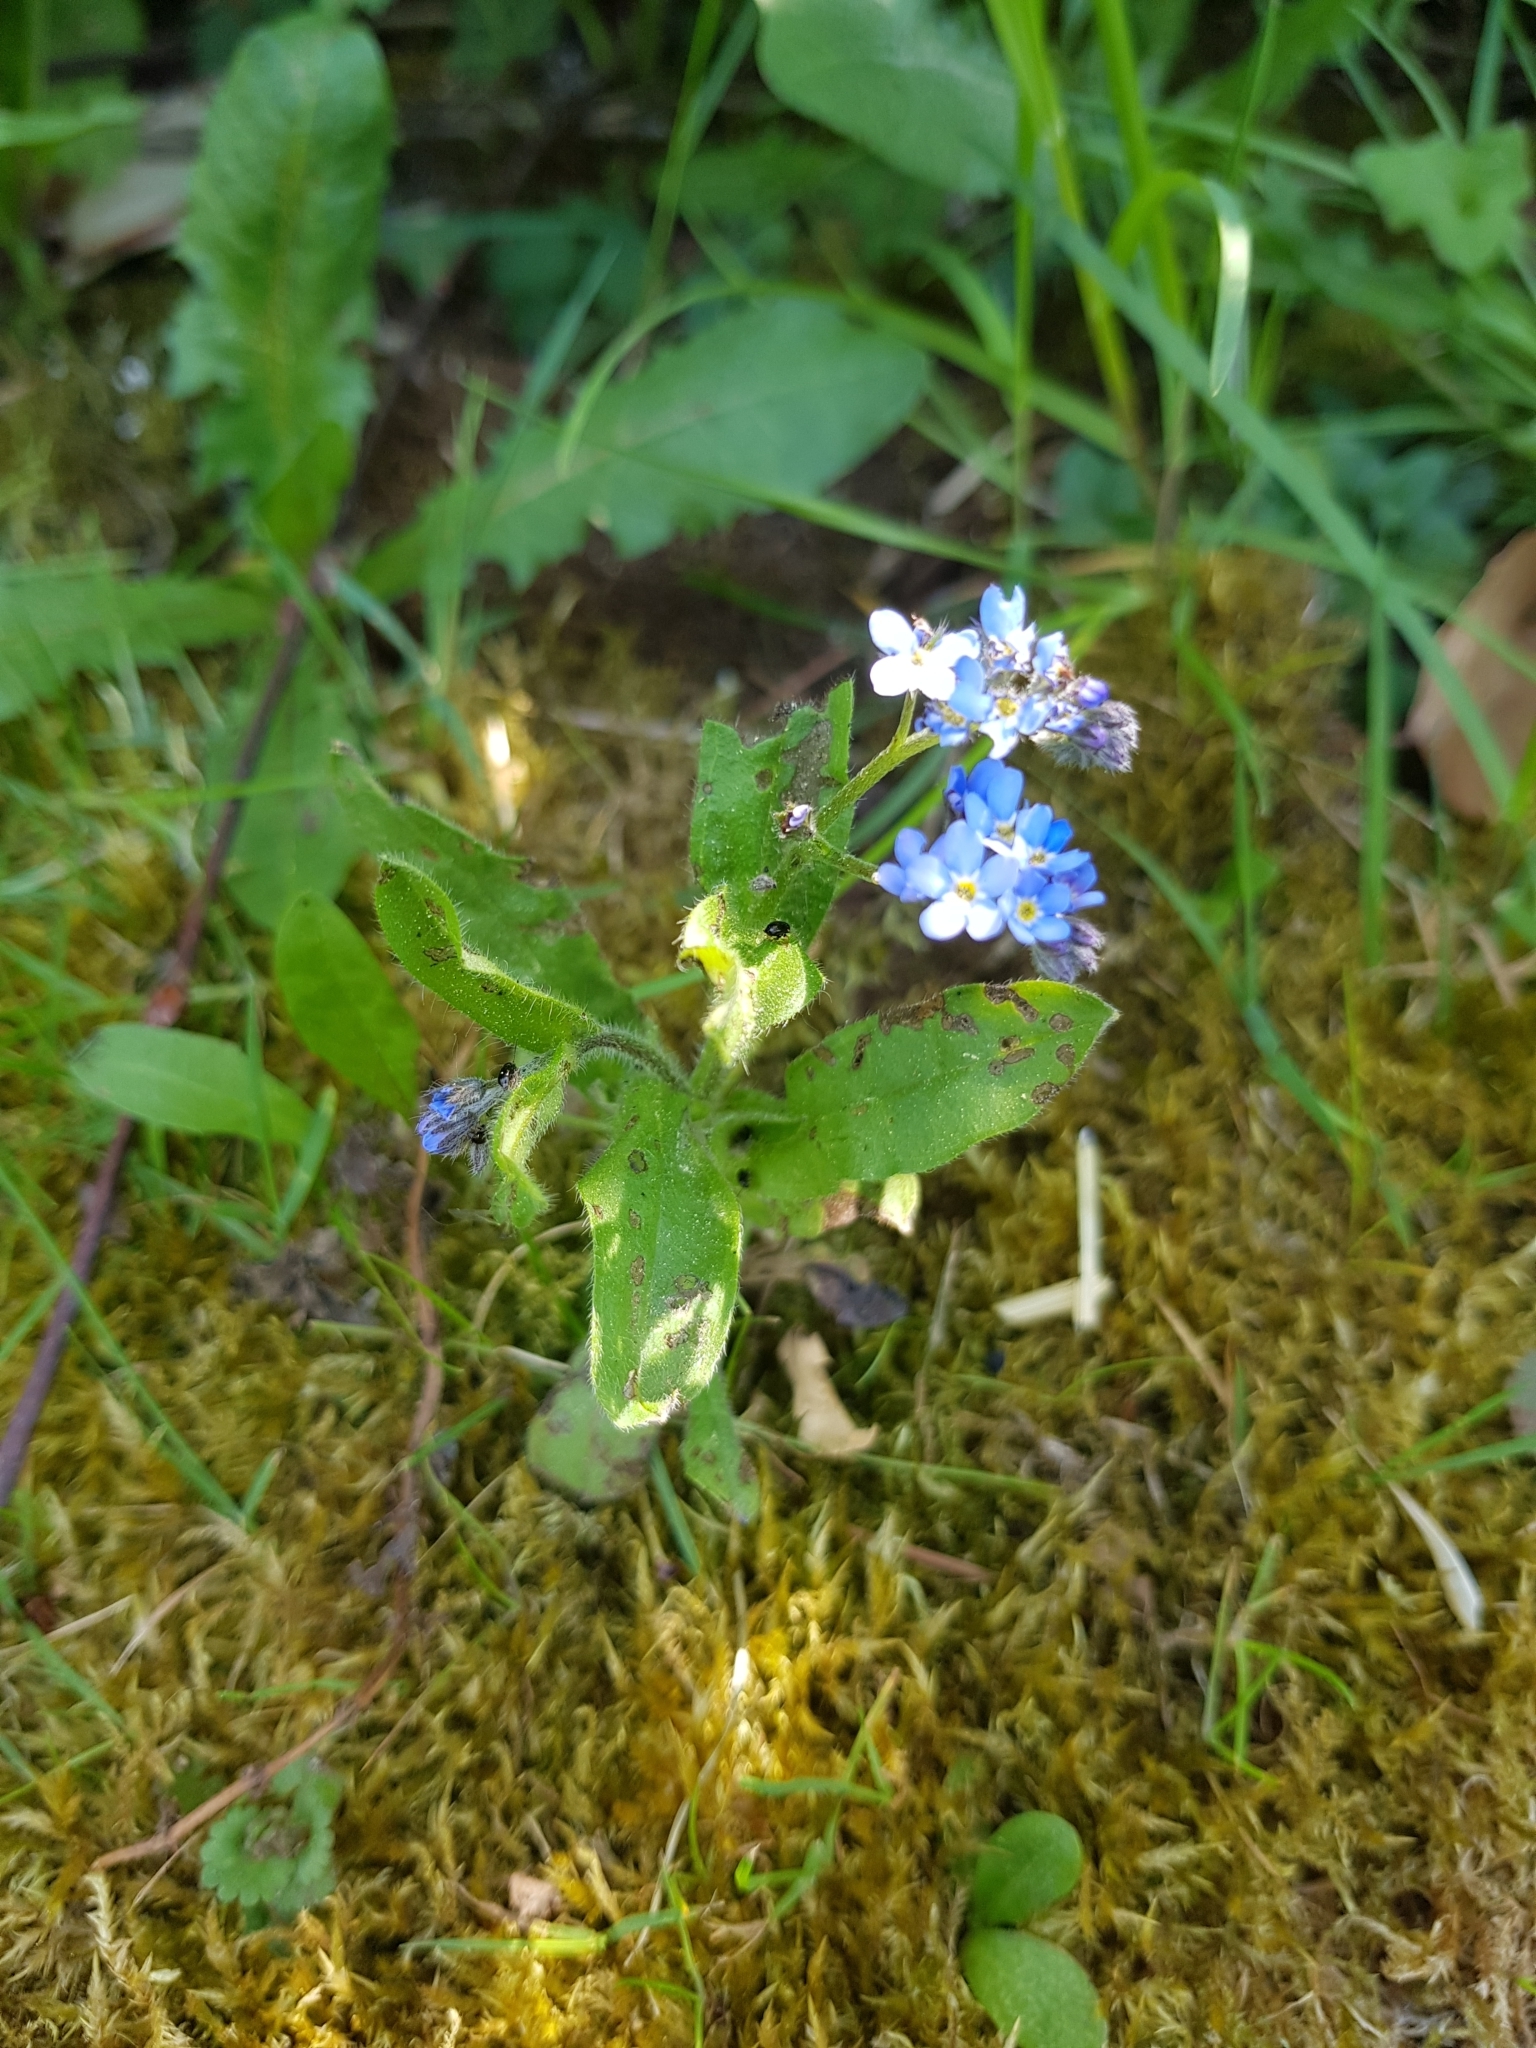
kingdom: Plantae
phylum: Tracheophyta
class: Magnoliopsida
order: Boraginales
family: Boraginaceae
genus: Myosotis
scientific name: Myosotis sylvatica
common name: Wood forget-me-not
